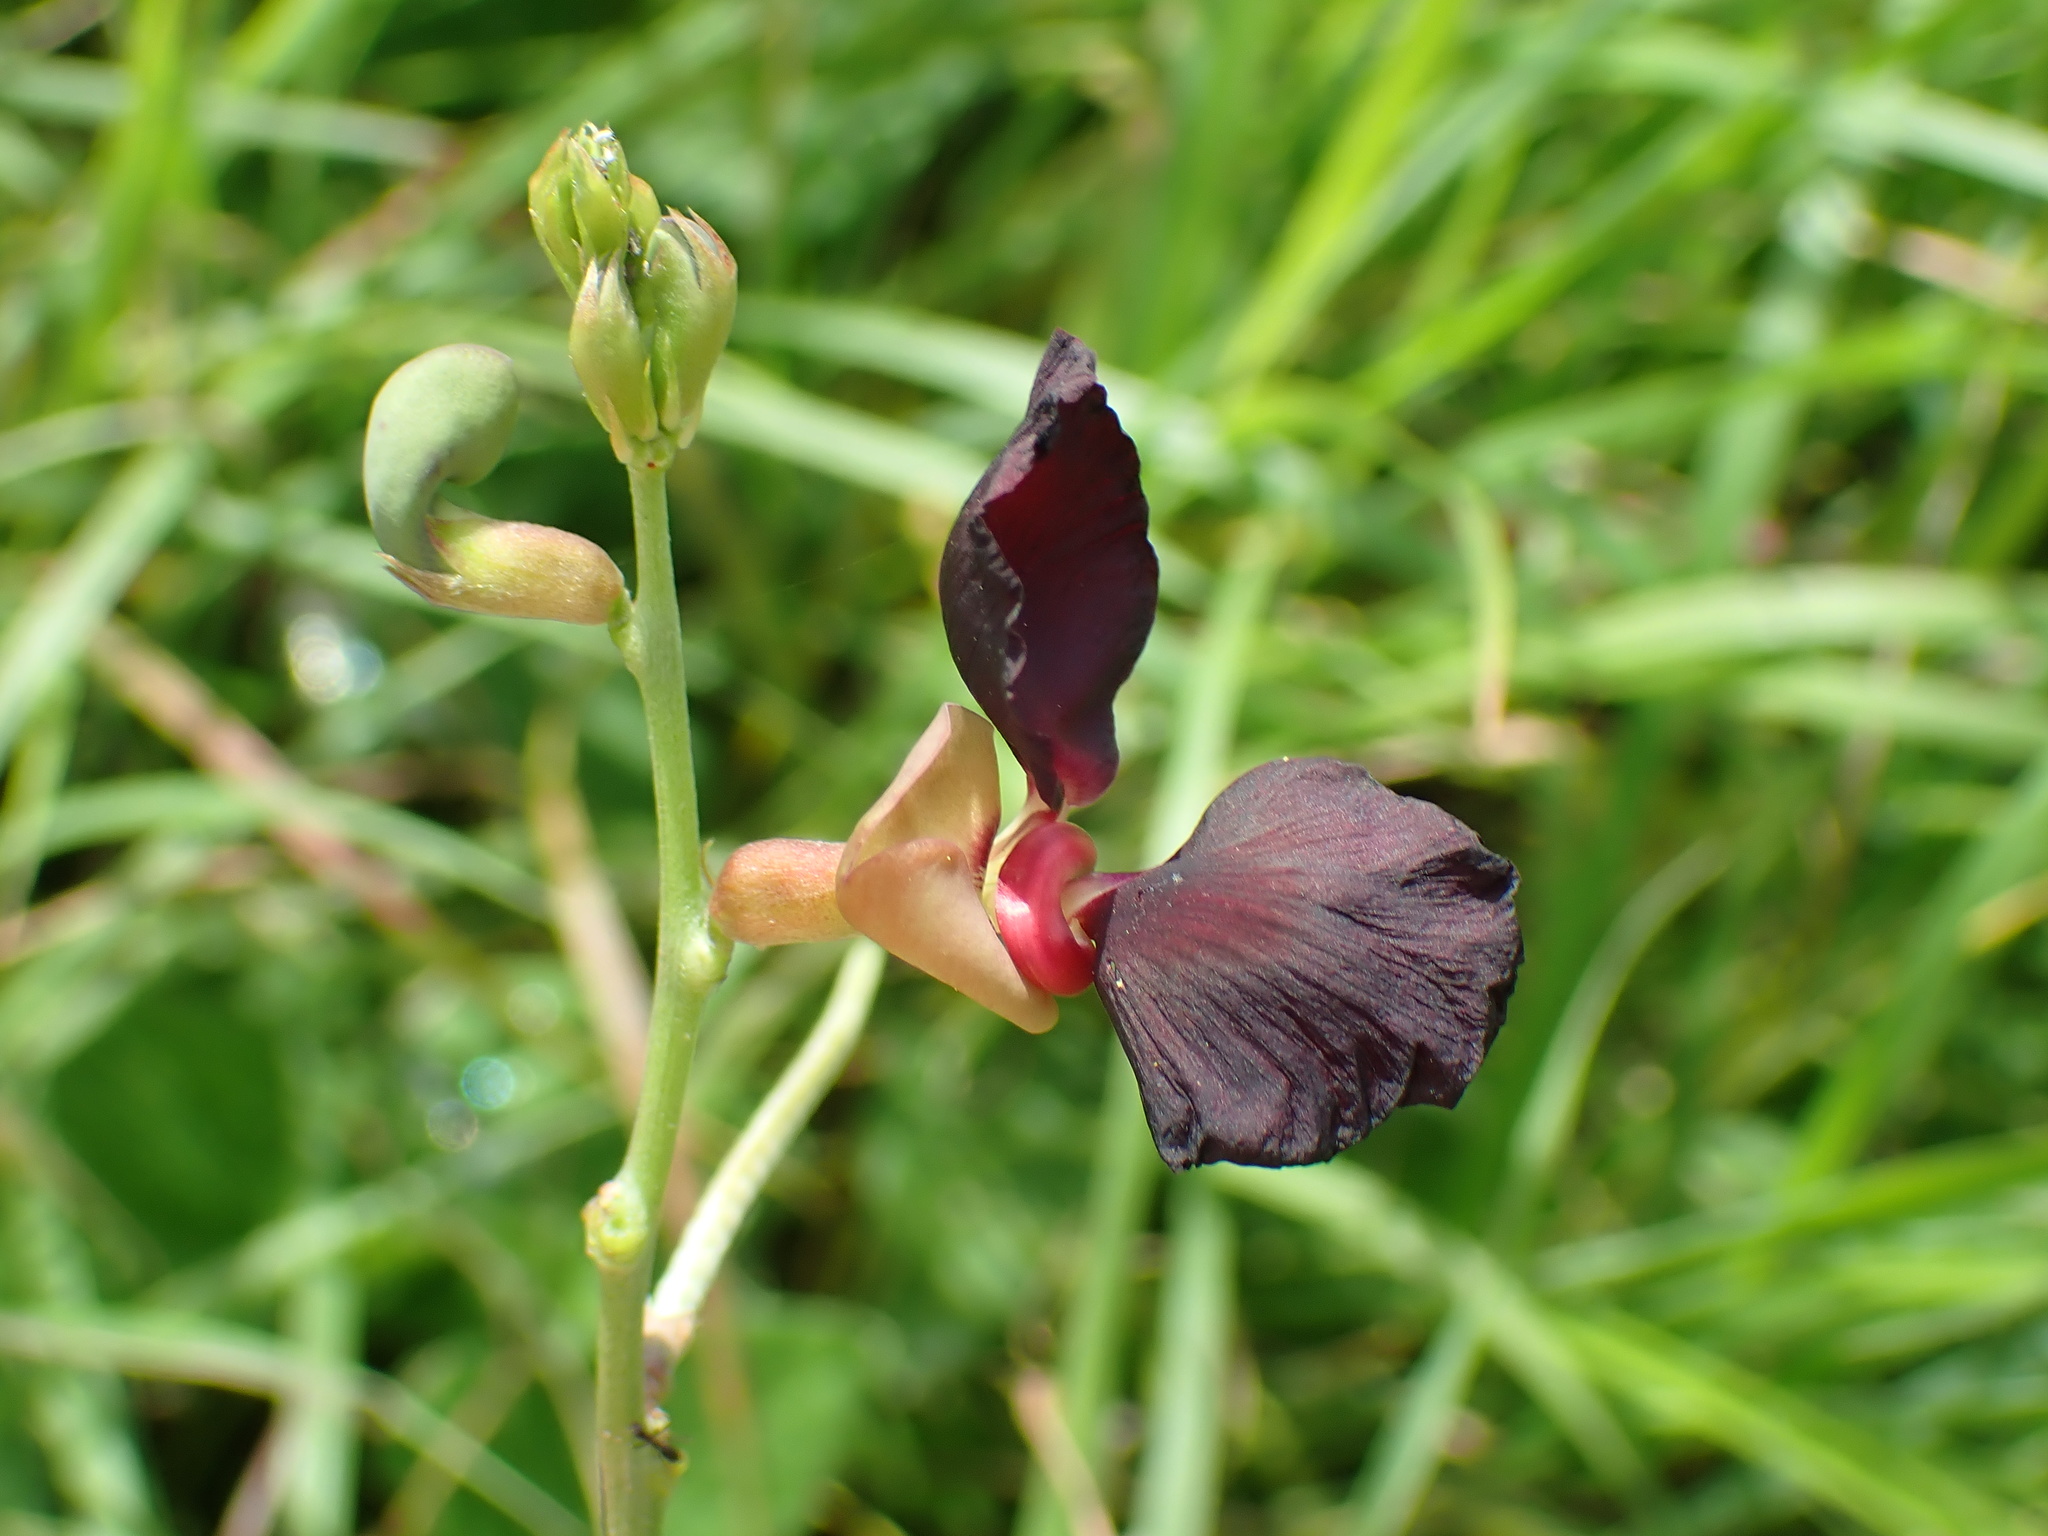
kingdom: Plantae
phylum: Tracheophyta
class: Magnoliopsida
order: Fabales
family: Fabaceae
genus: Macroptilium
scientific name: Macroptilium atropurpureum
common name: Purple bushbean
